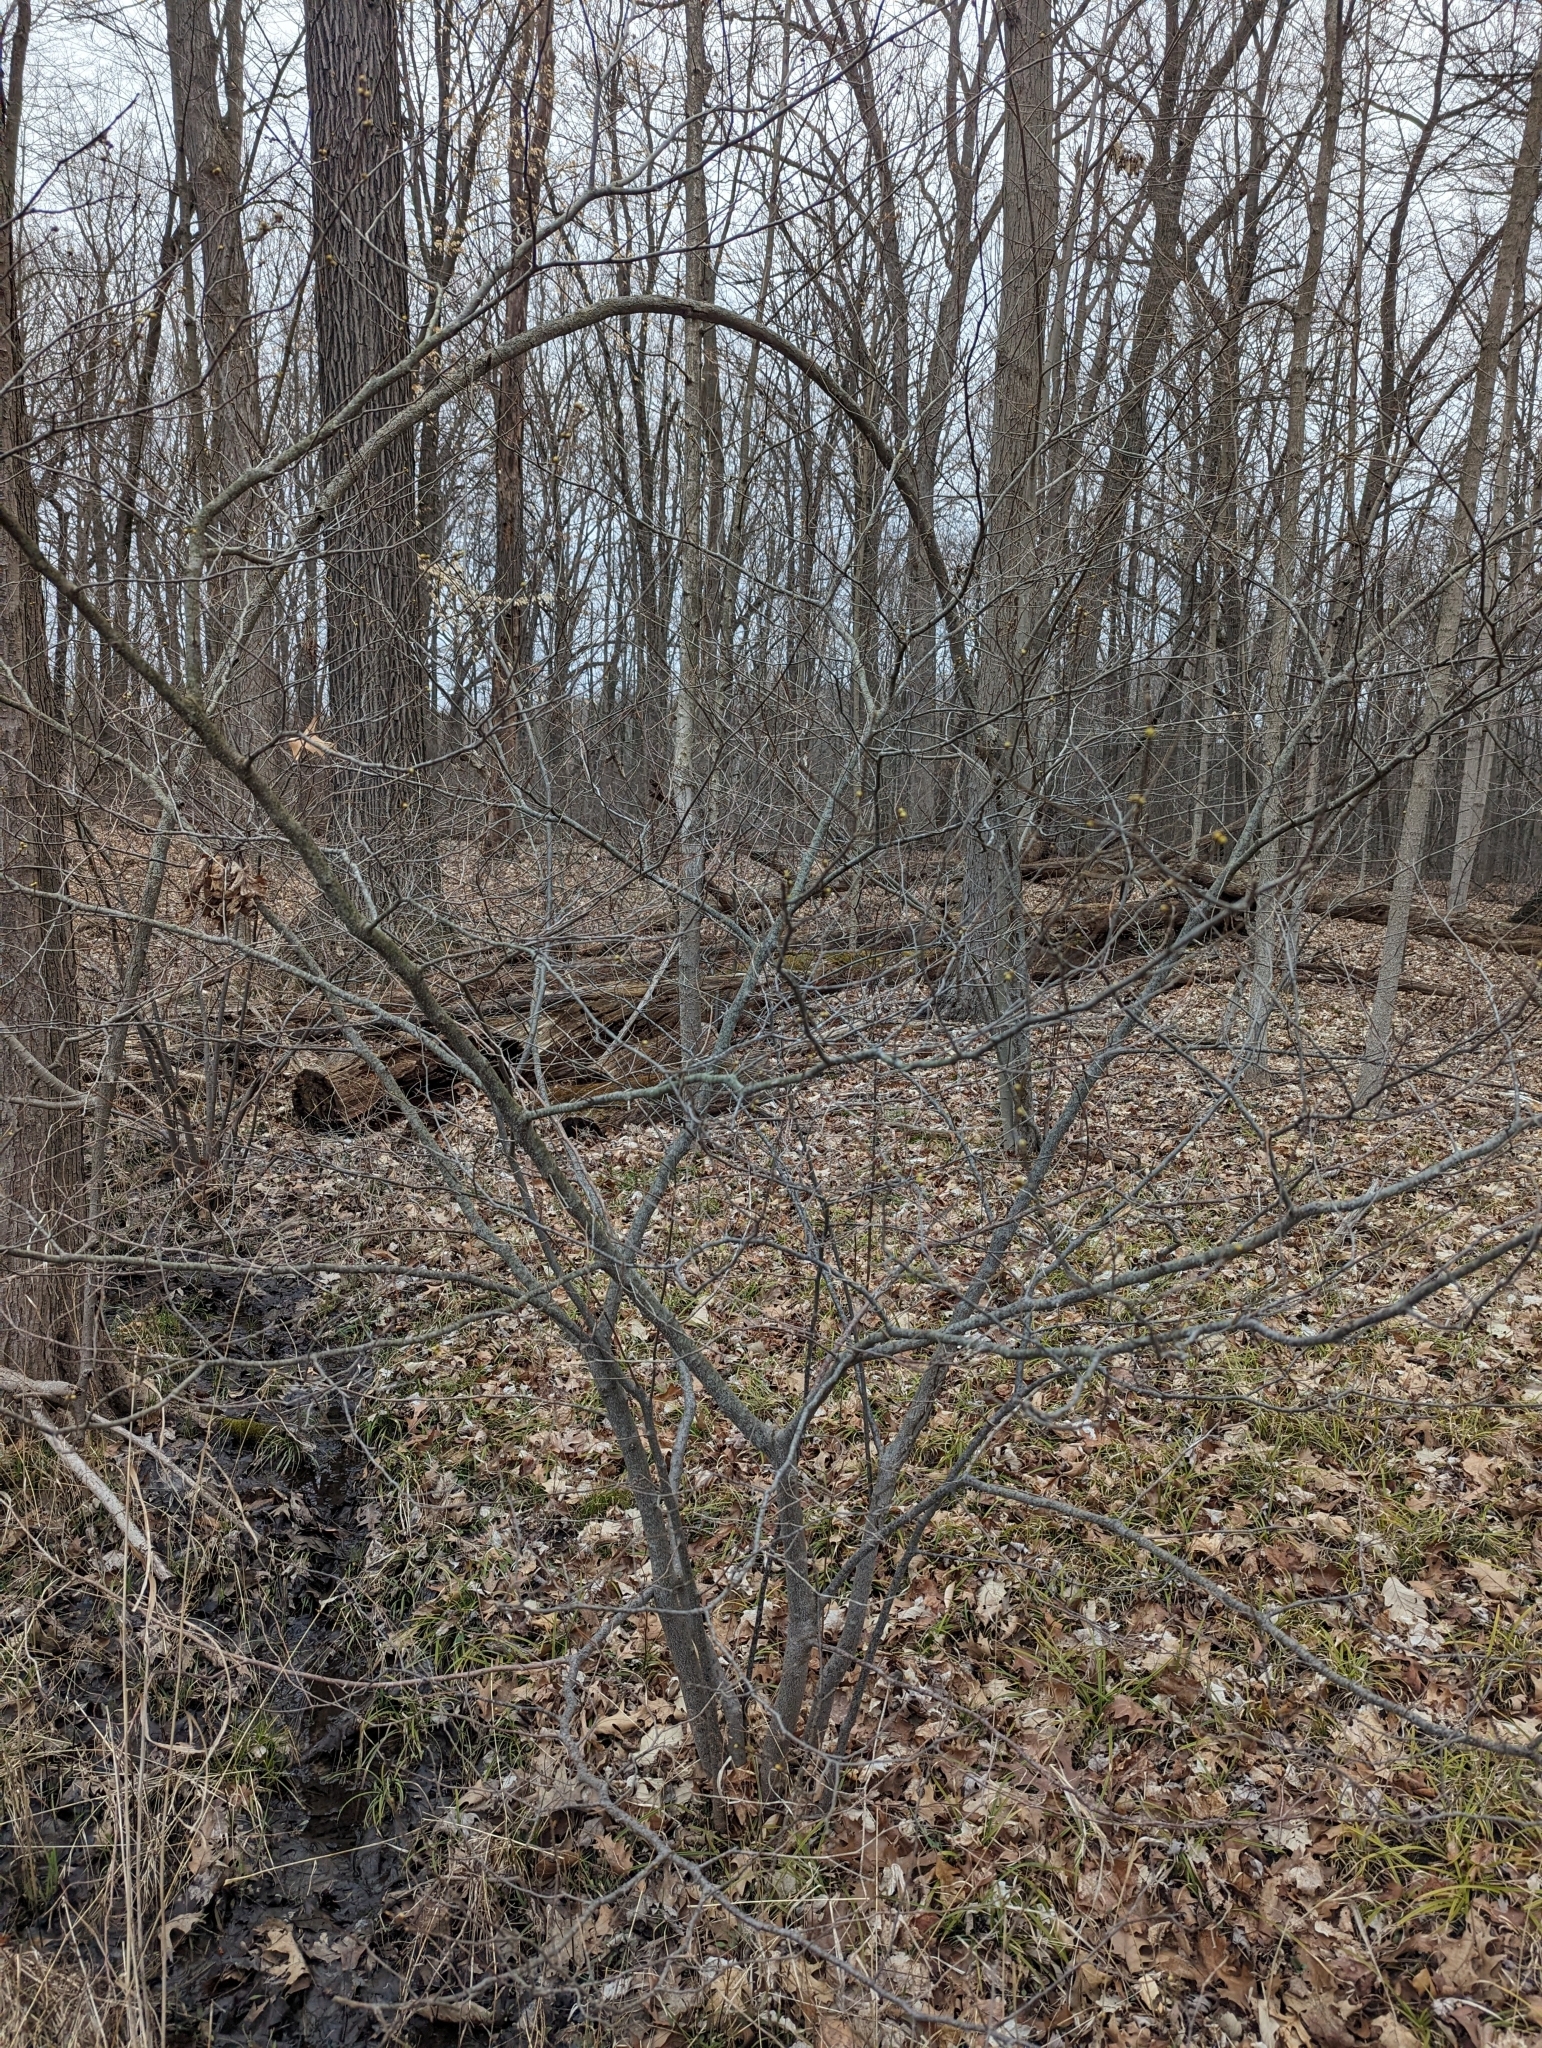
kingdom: Plantae
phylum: Tracheophyta
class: Magnoliopsida
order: Laurales
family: Lauraceae
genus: Lindera
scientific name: Lindera benzoin
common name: Spicebush
